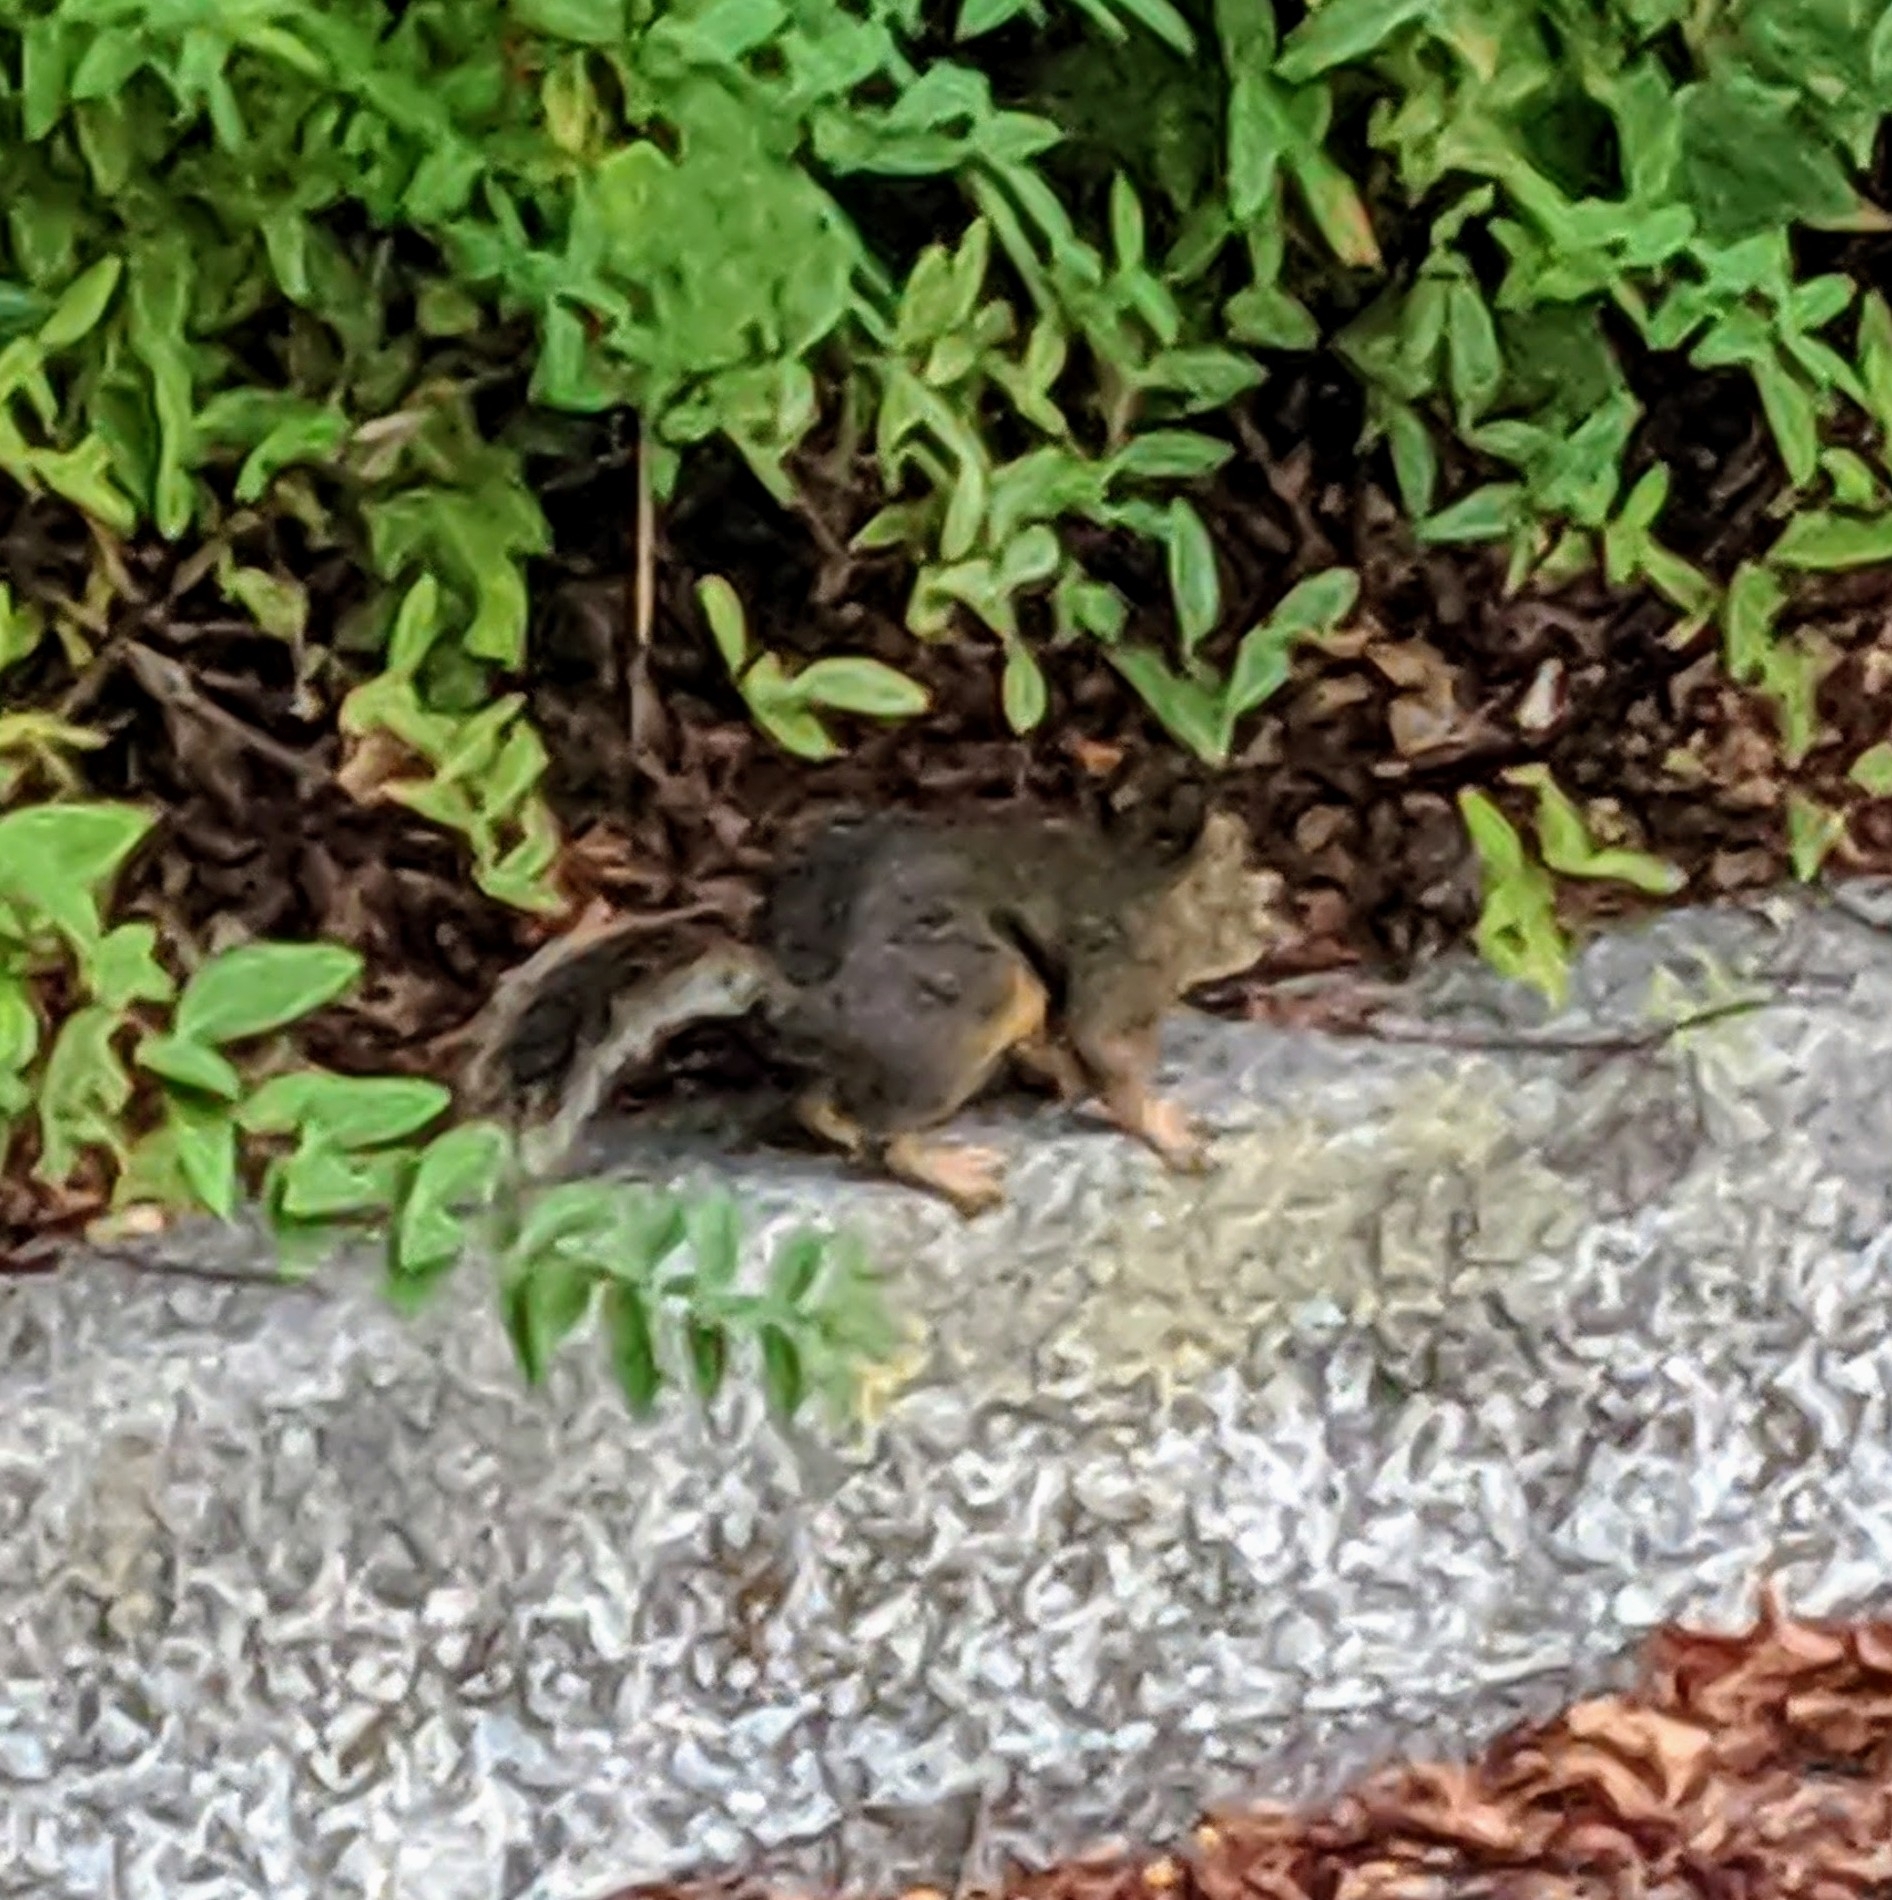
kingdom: Animalia
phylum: Chordata
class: Mammalia
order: Rodentia
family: Sciuridae
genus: Tamiasciurus
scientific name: Tamiasciurus douglasii
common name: Douglas's squirrel
